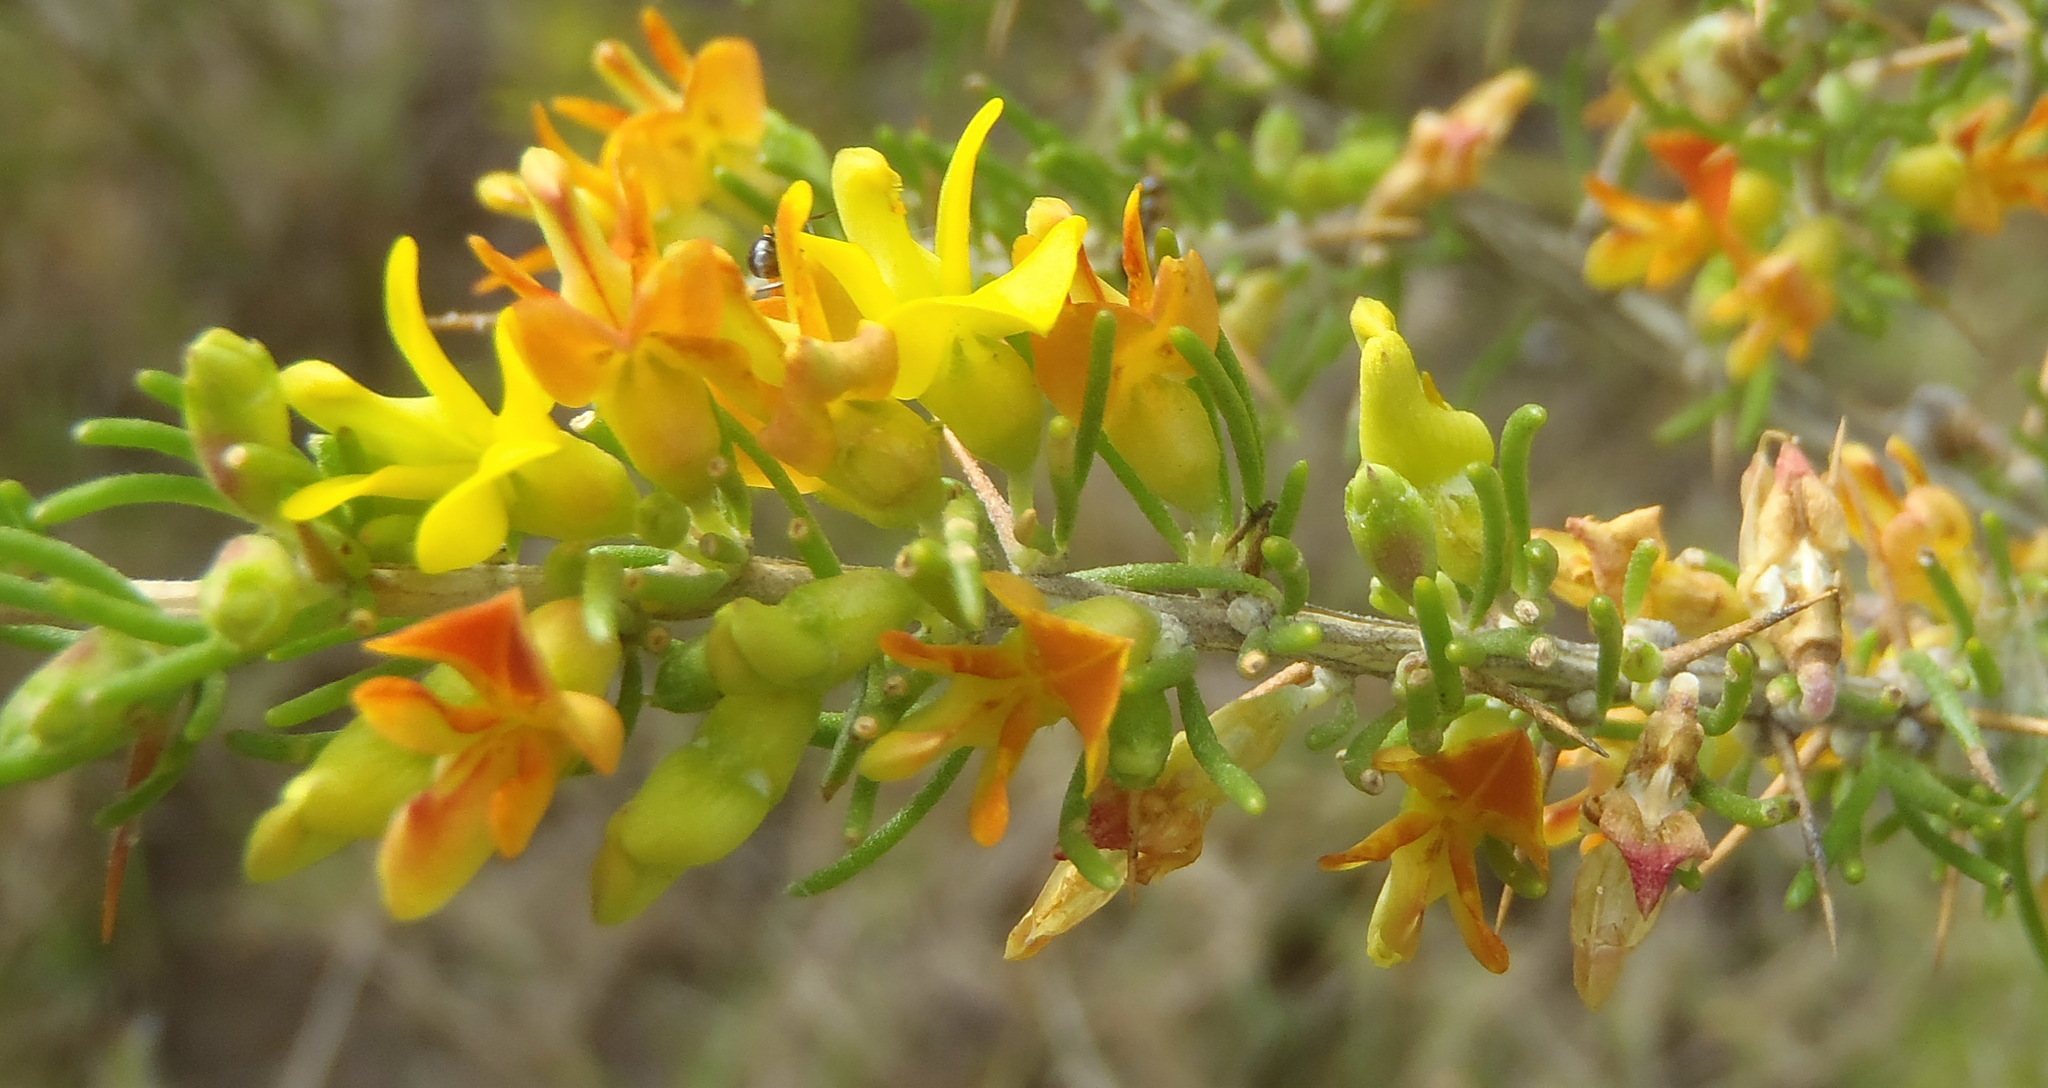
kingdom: Plantae
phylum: Tracheophyta
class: Magnoliopsida
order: Fabales
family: Fabaceae
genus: Aspalathus
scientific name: Aspalathus spinosa
